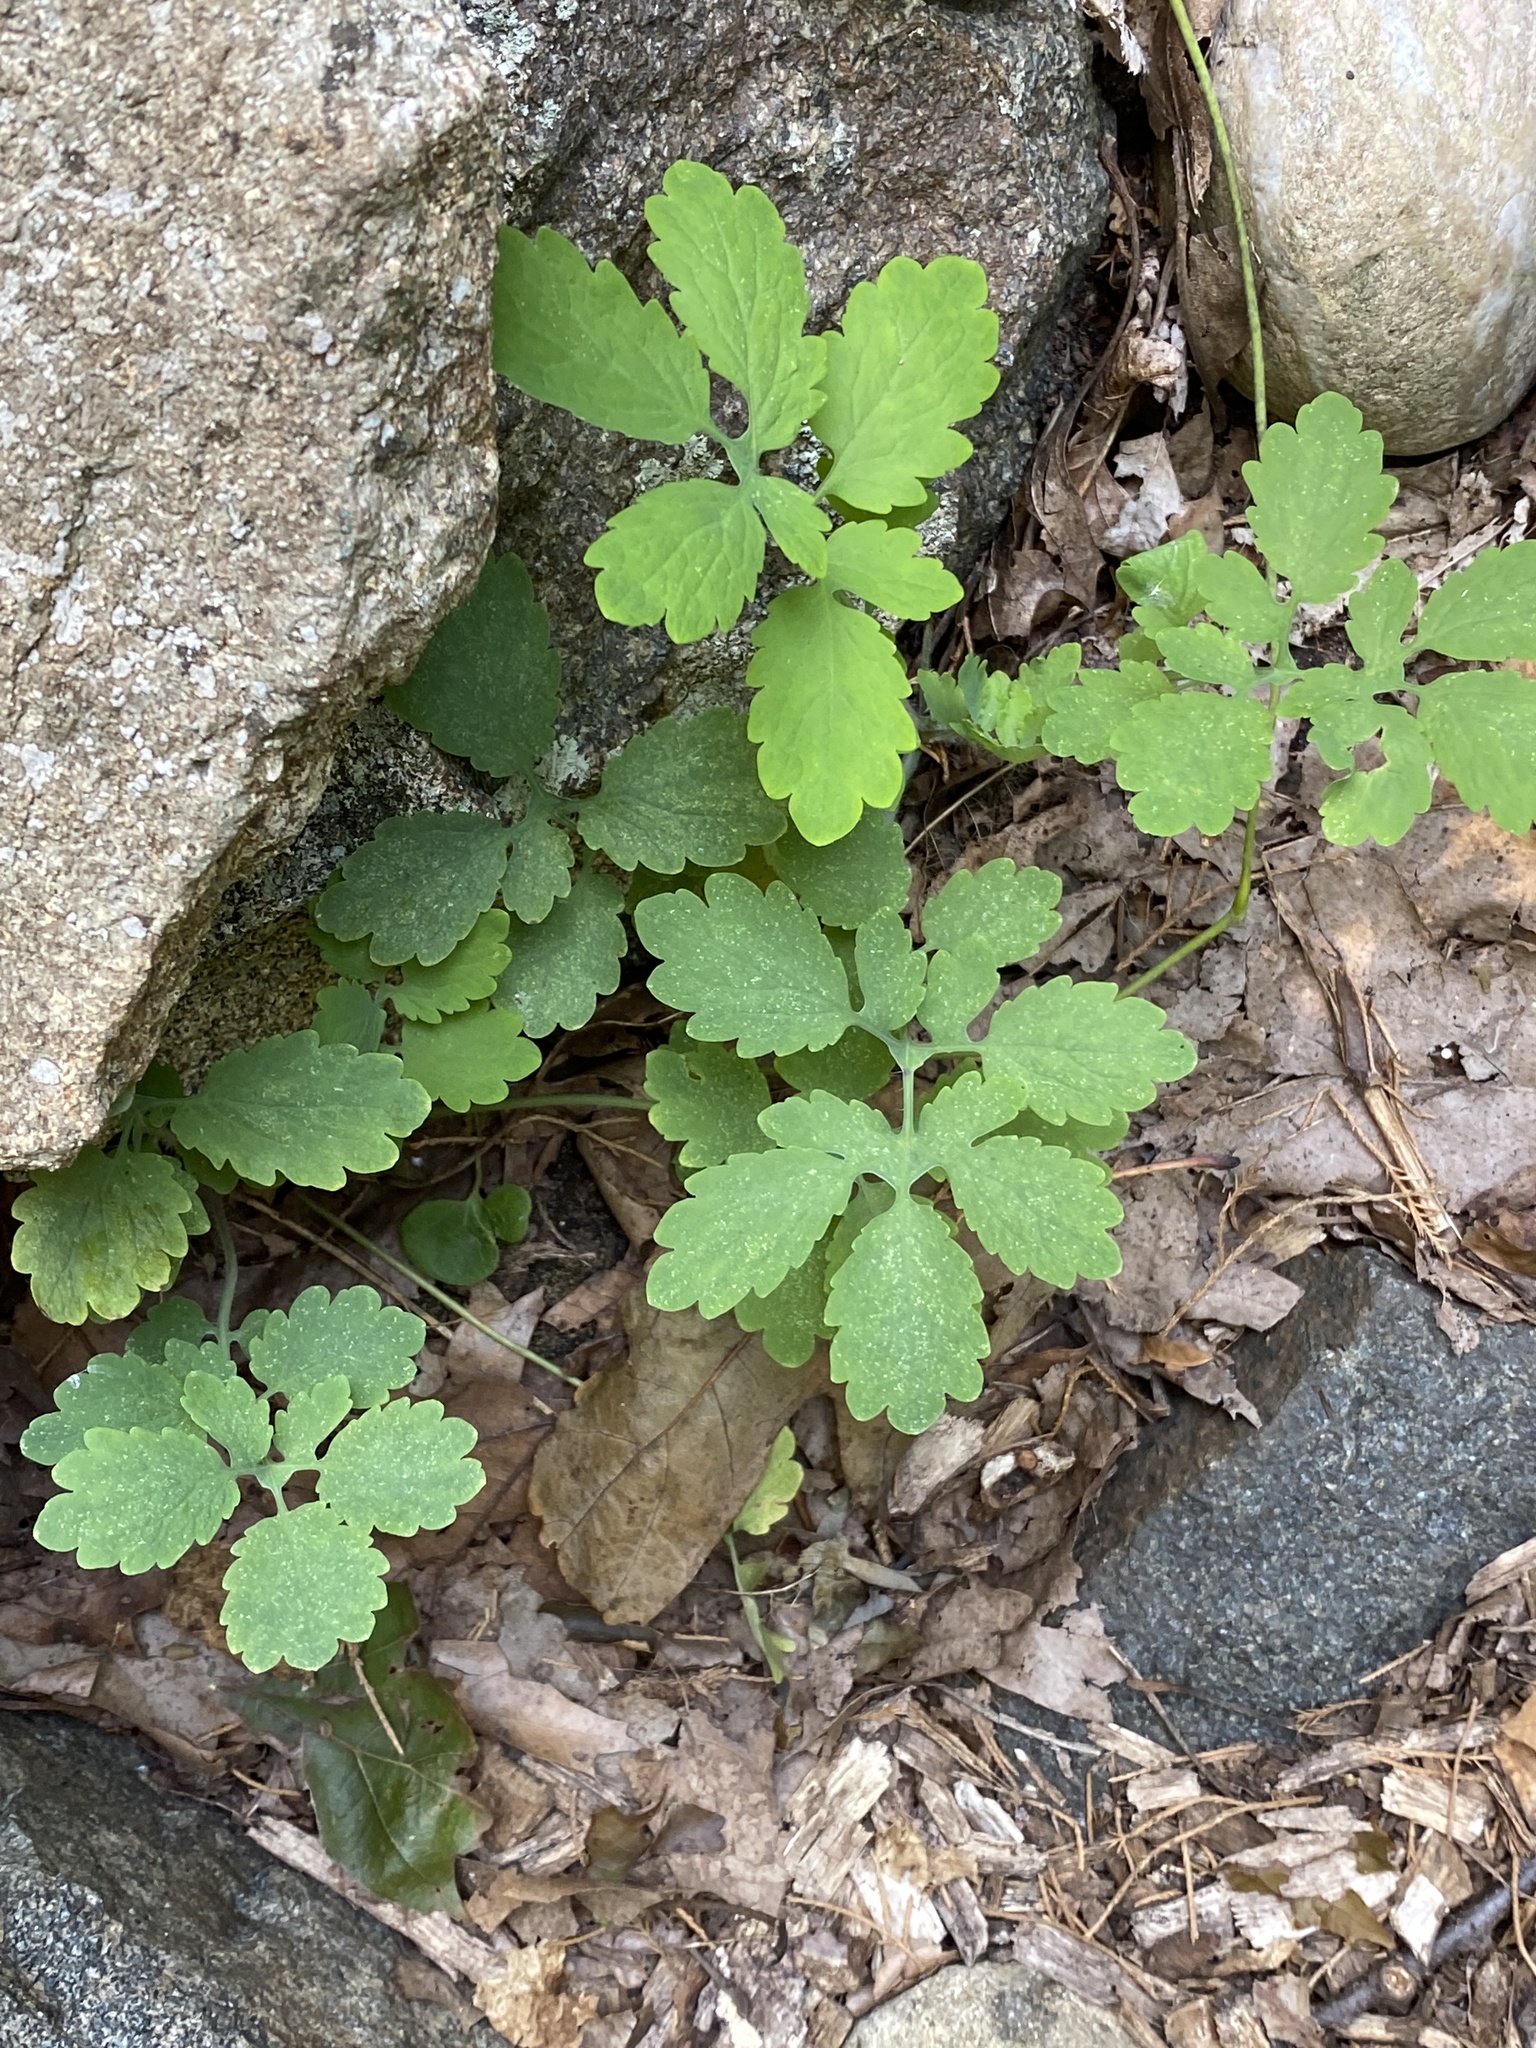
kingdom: Plantae
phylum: Tracheophyta
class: Magnoliopsida
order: Ranunculales
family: Papaveraceae
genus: Chelidonium
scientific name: Chelidonium majus
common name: Greater celandine
